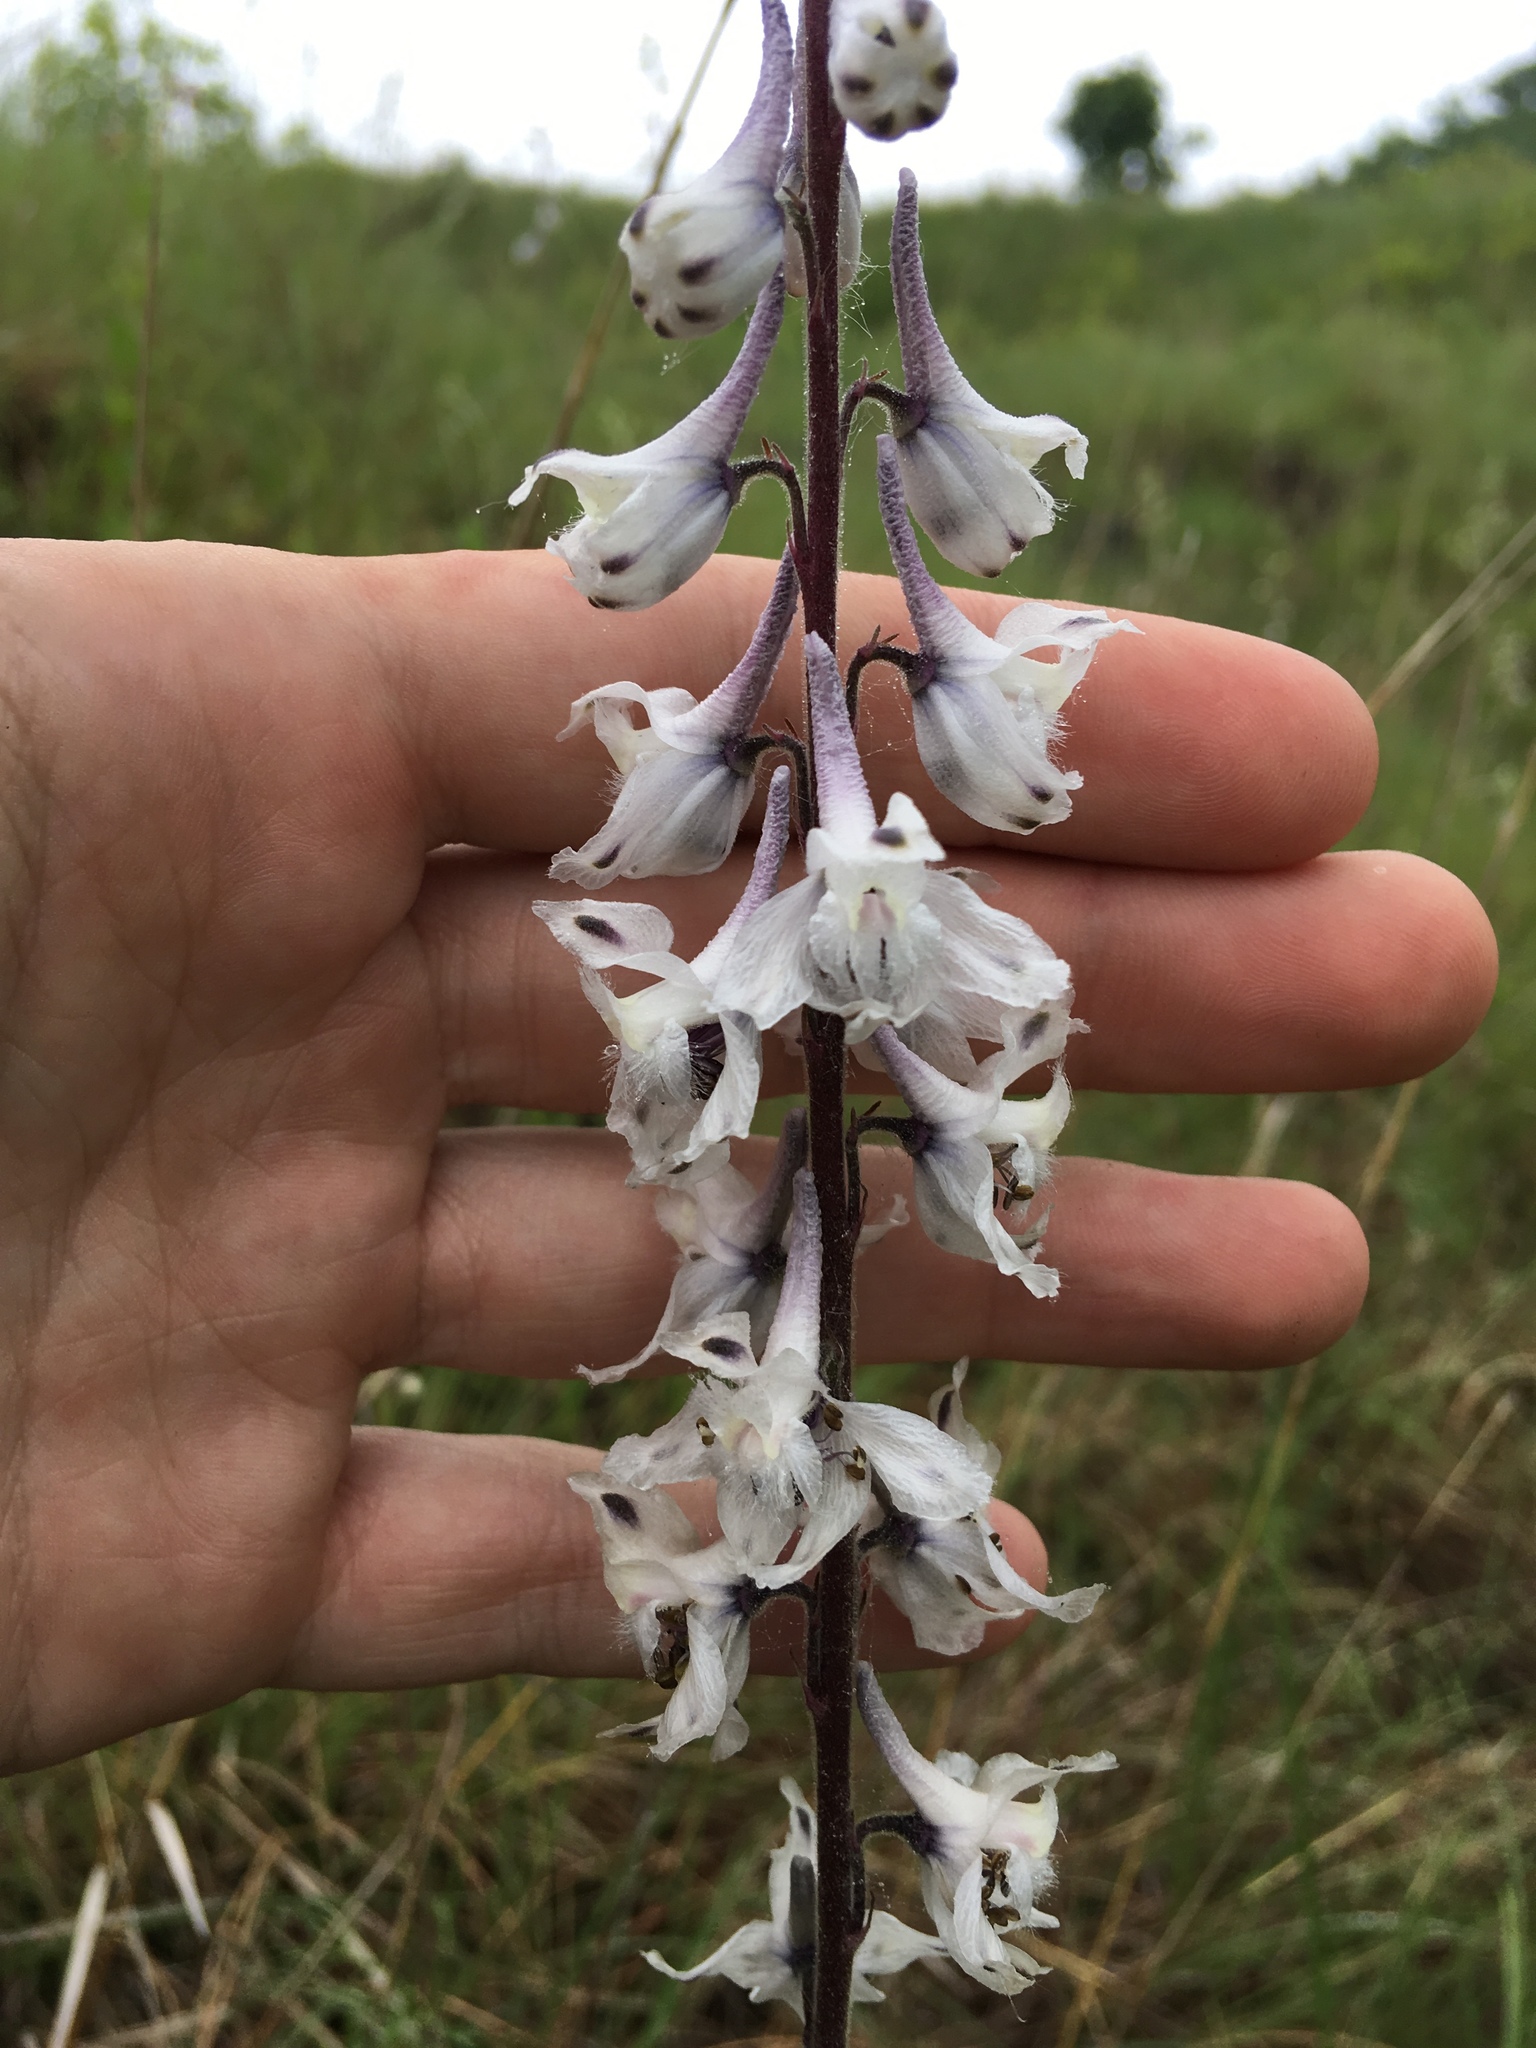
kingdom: Plantae
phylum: Tracheophyta
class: Magnoliopsida
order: Ranunculales
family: Ranunculaceae
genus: Delphinium
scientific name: Delphinium carolinianum
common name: Carolina larkspur
